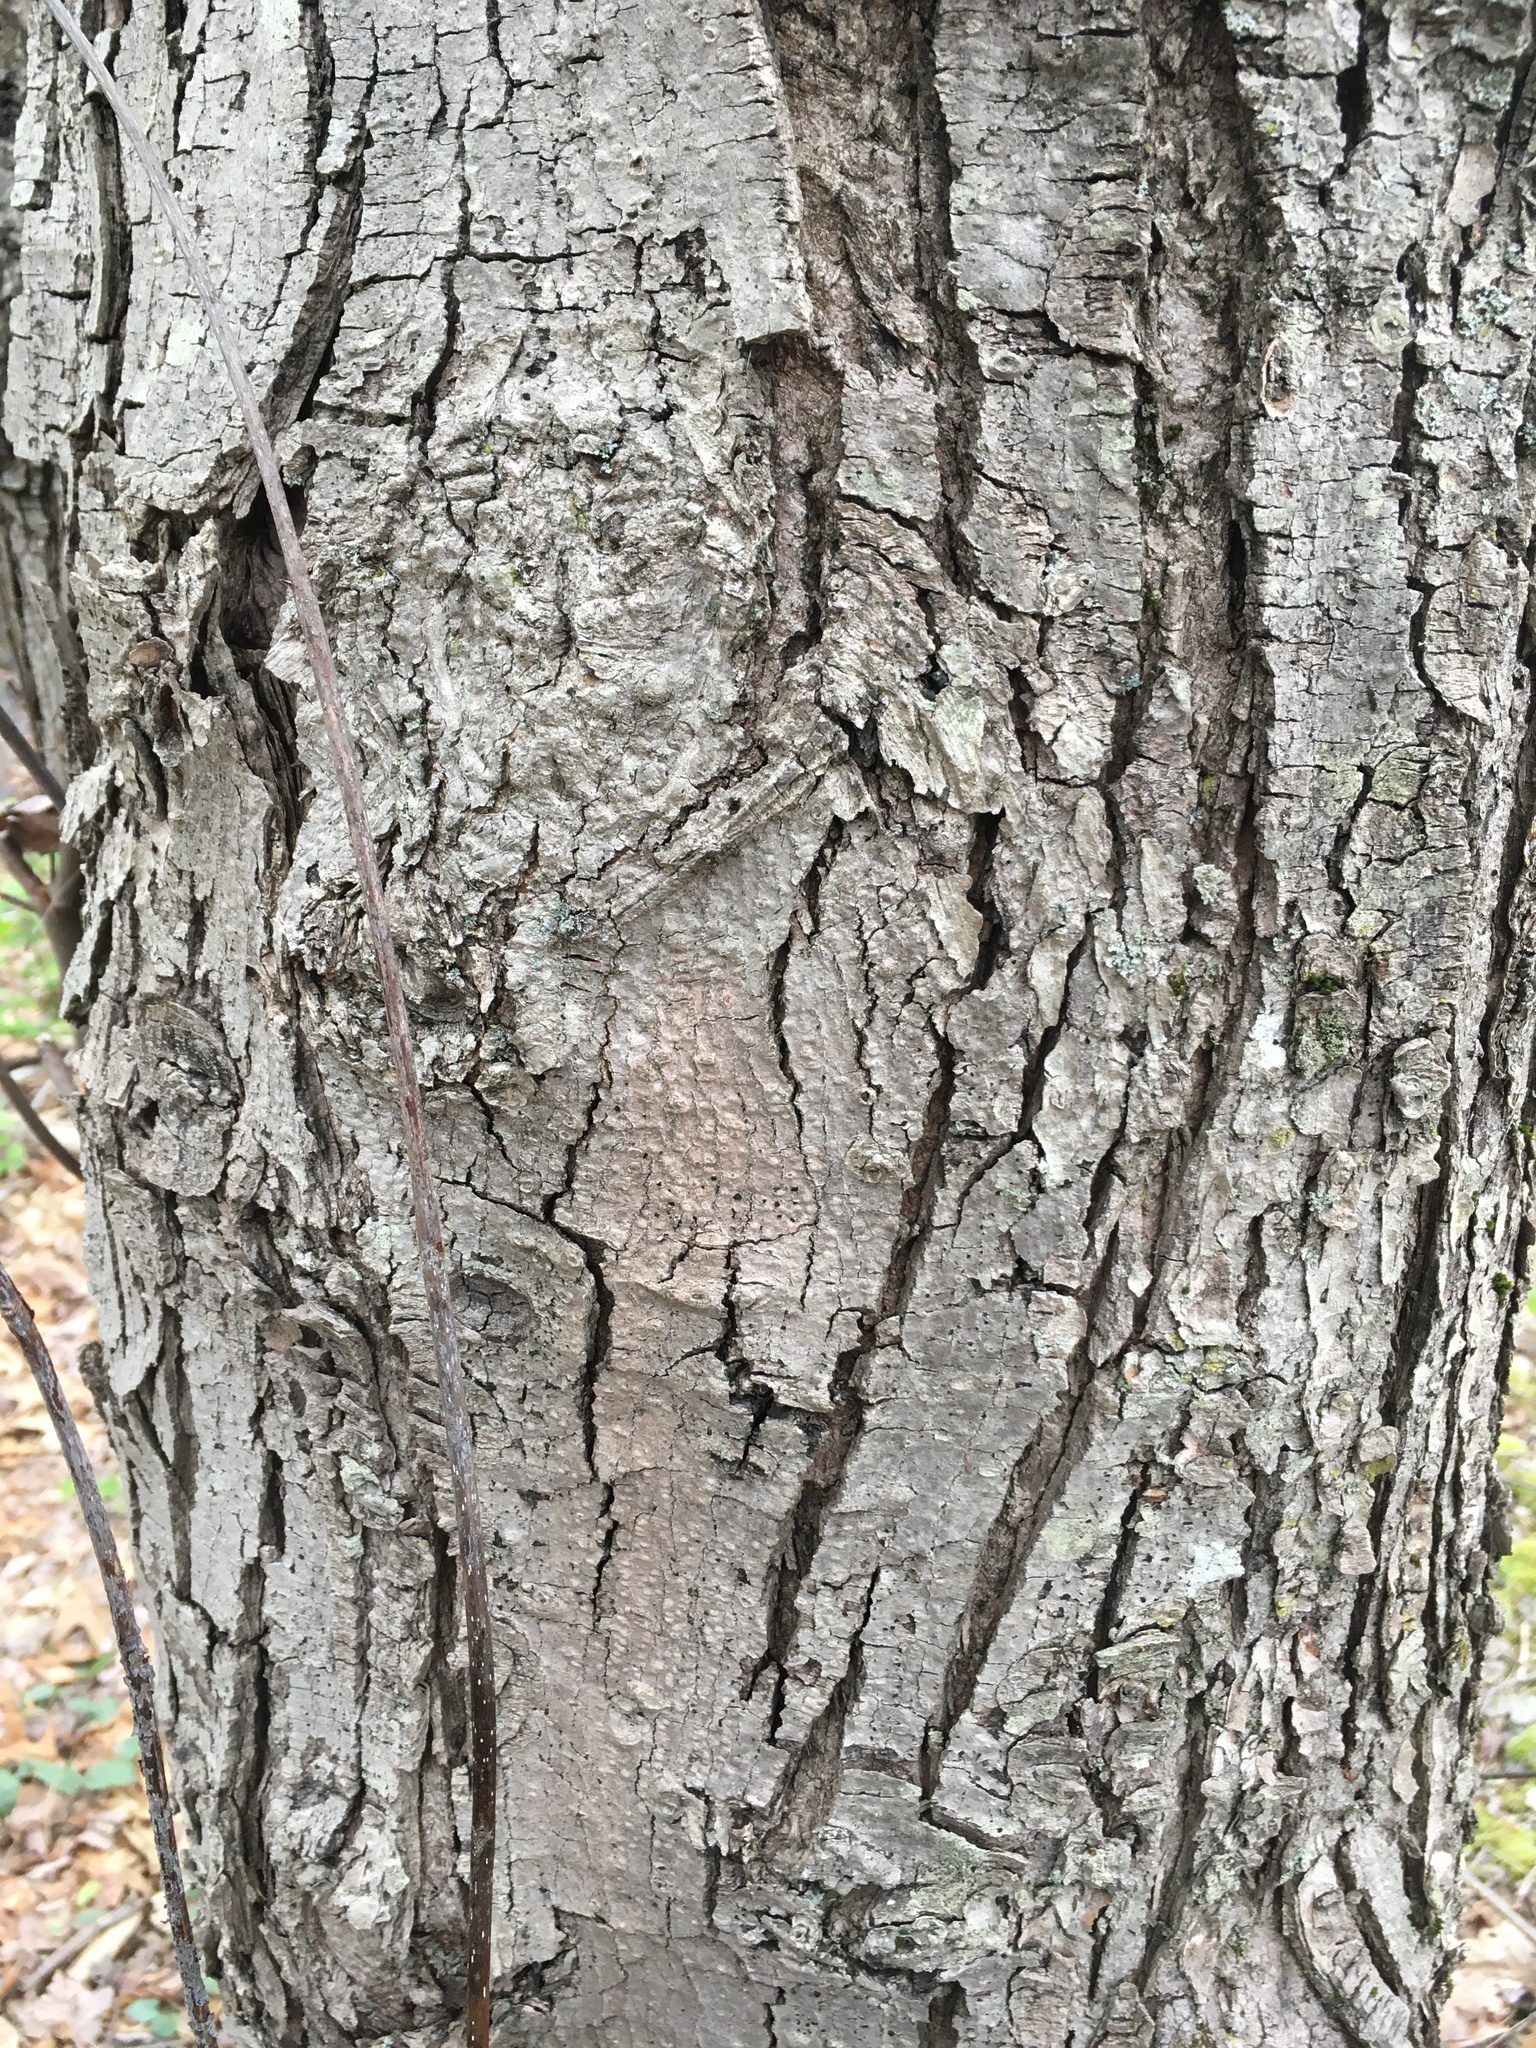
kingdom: Plantae
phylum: Tracheophyta
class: Magnoliopsida
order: Sapindales
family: Sapindaceae
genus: Acer
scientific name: Acer rubrum
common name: Red maple
